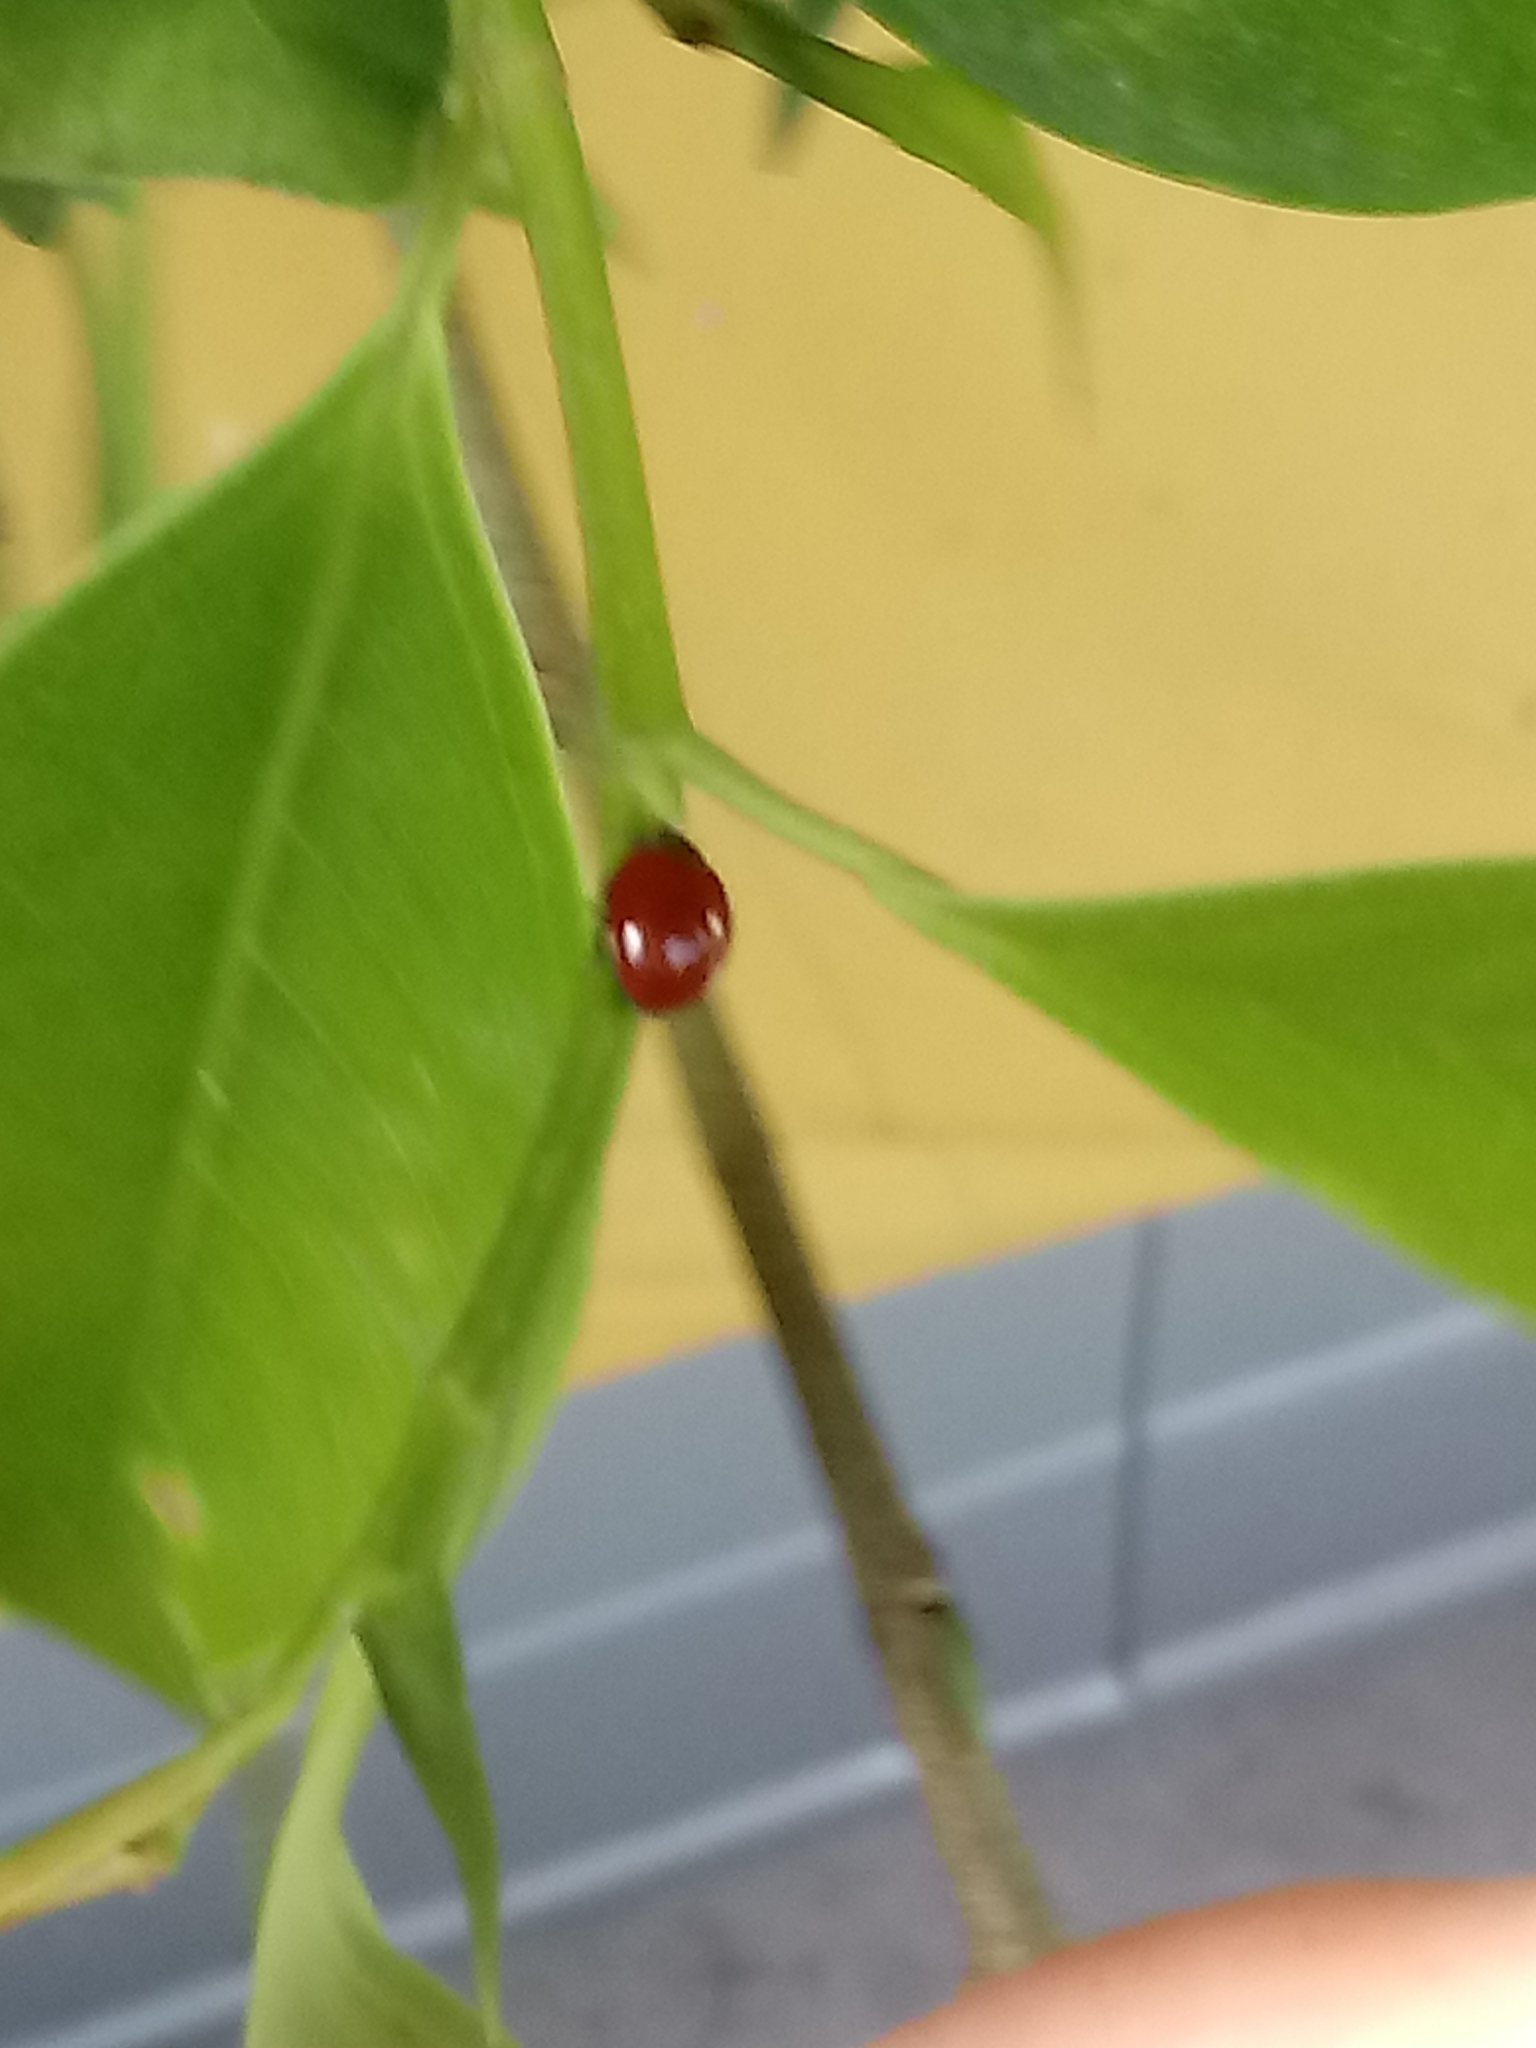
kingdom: Animalia
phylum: Arthropoda
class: Insecta
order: Coleoptera
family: Coccinellidae
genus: Cycloneda
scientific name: Cycloneda sanguinea
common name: Ladybird beetle
